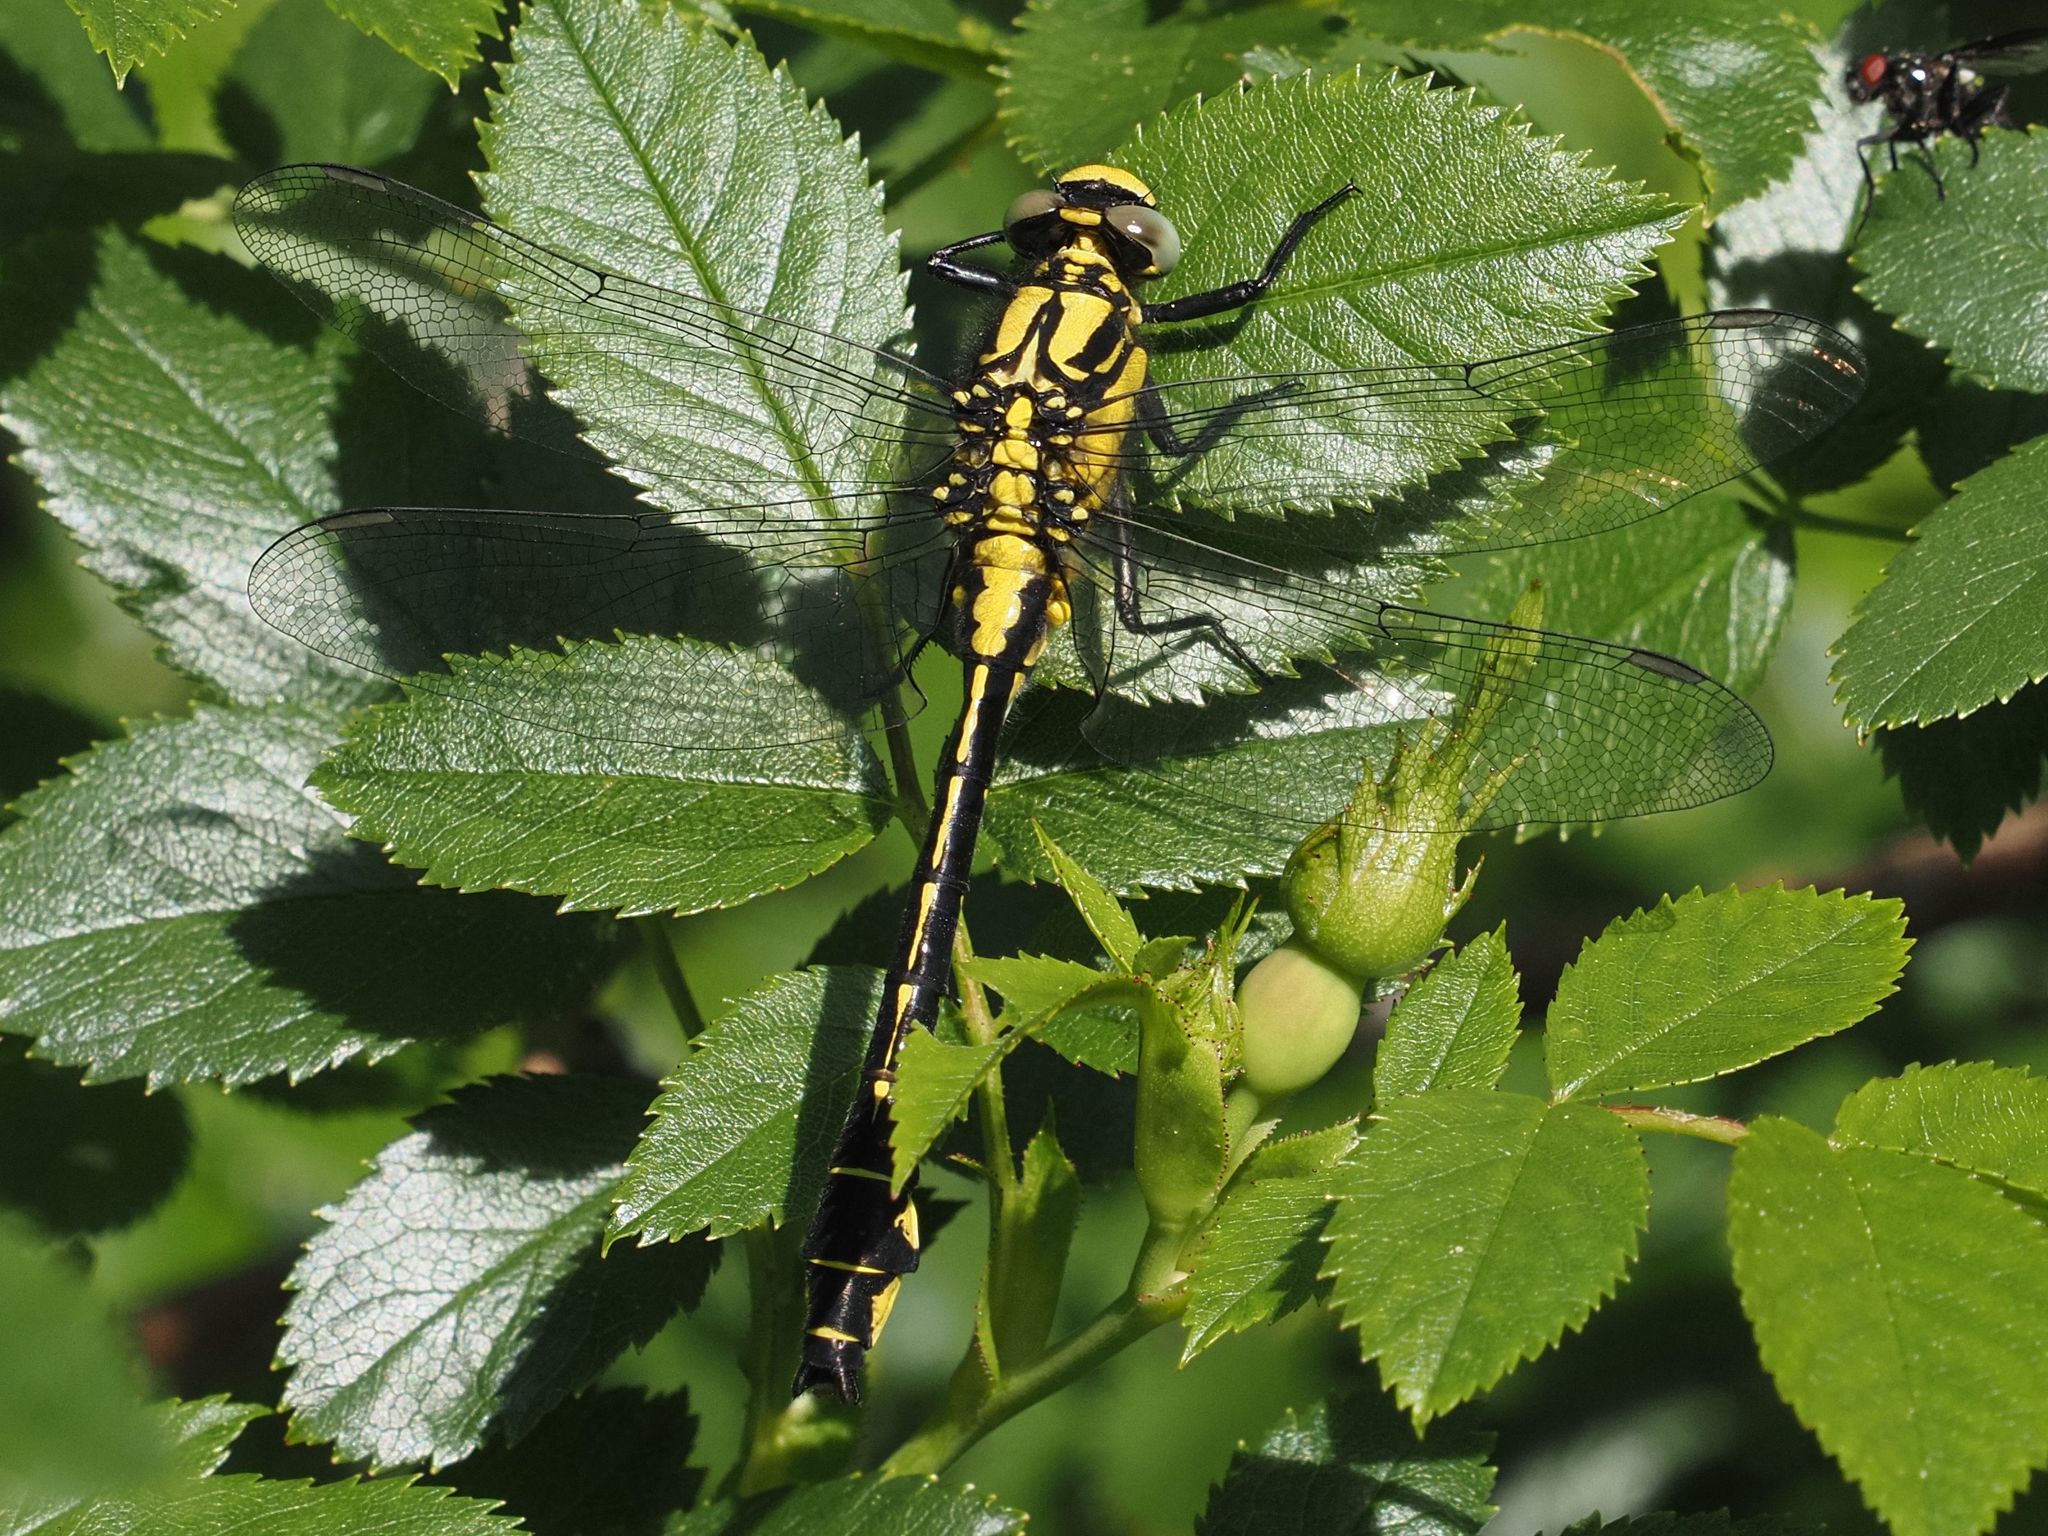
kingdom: Animalia
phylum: Arthropoda
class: Insecta
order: Odonata
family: Gomphidae
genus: Gomphus
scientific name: Gomphus vulgatissimus
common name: Club-tailed dragonfly
